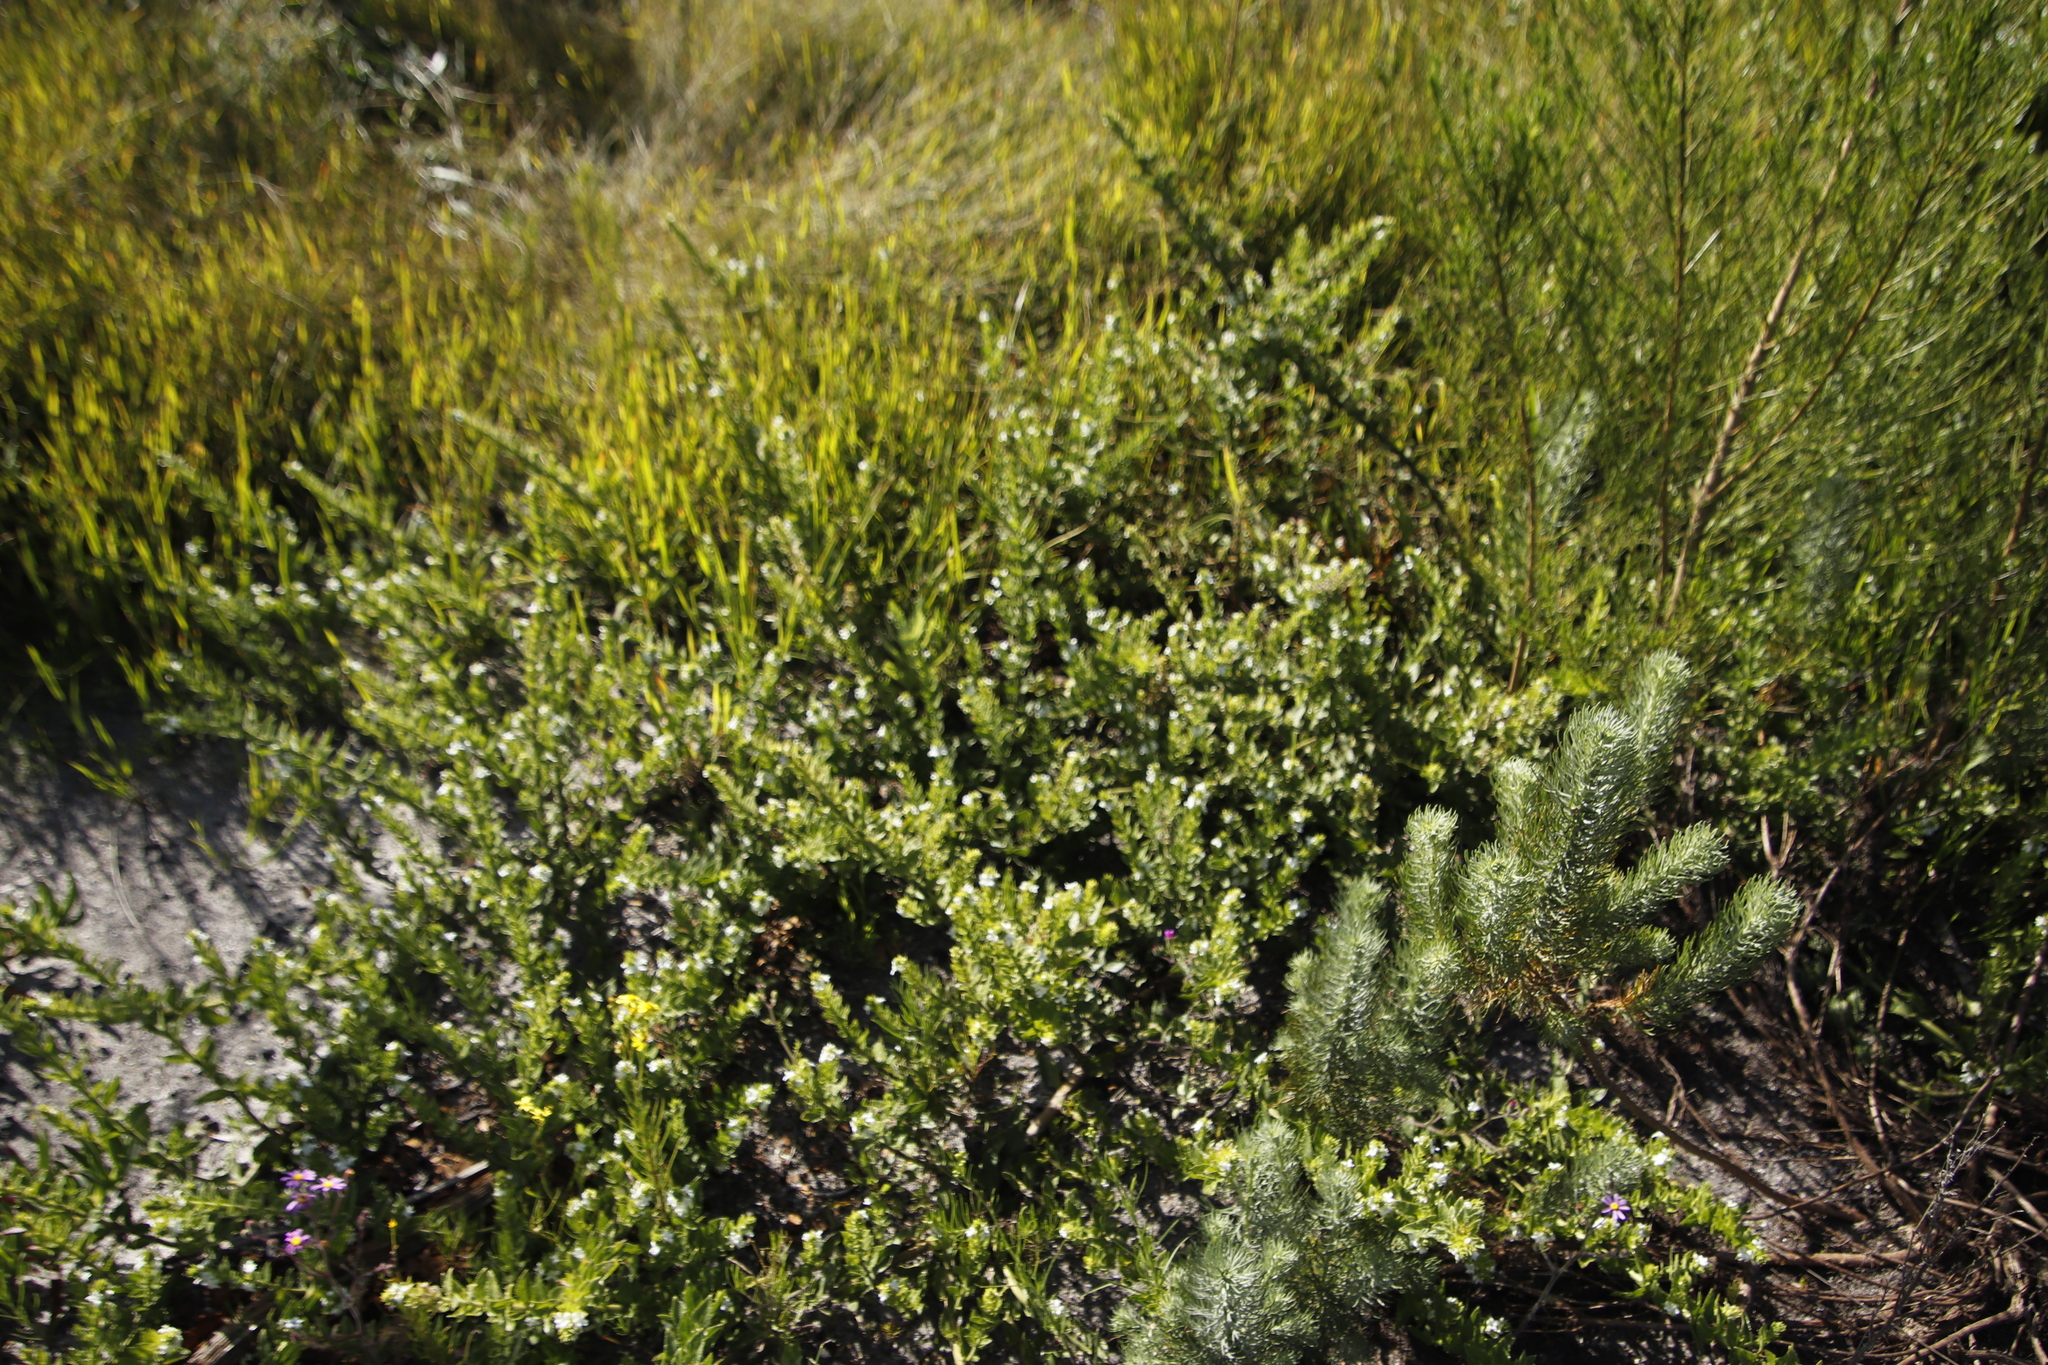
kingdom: Plantae
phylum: Tracheophyta
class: Magnoliopsida
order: Lamiales
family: Scrophulariaceae
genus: Oftia
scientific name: Oftia africana
